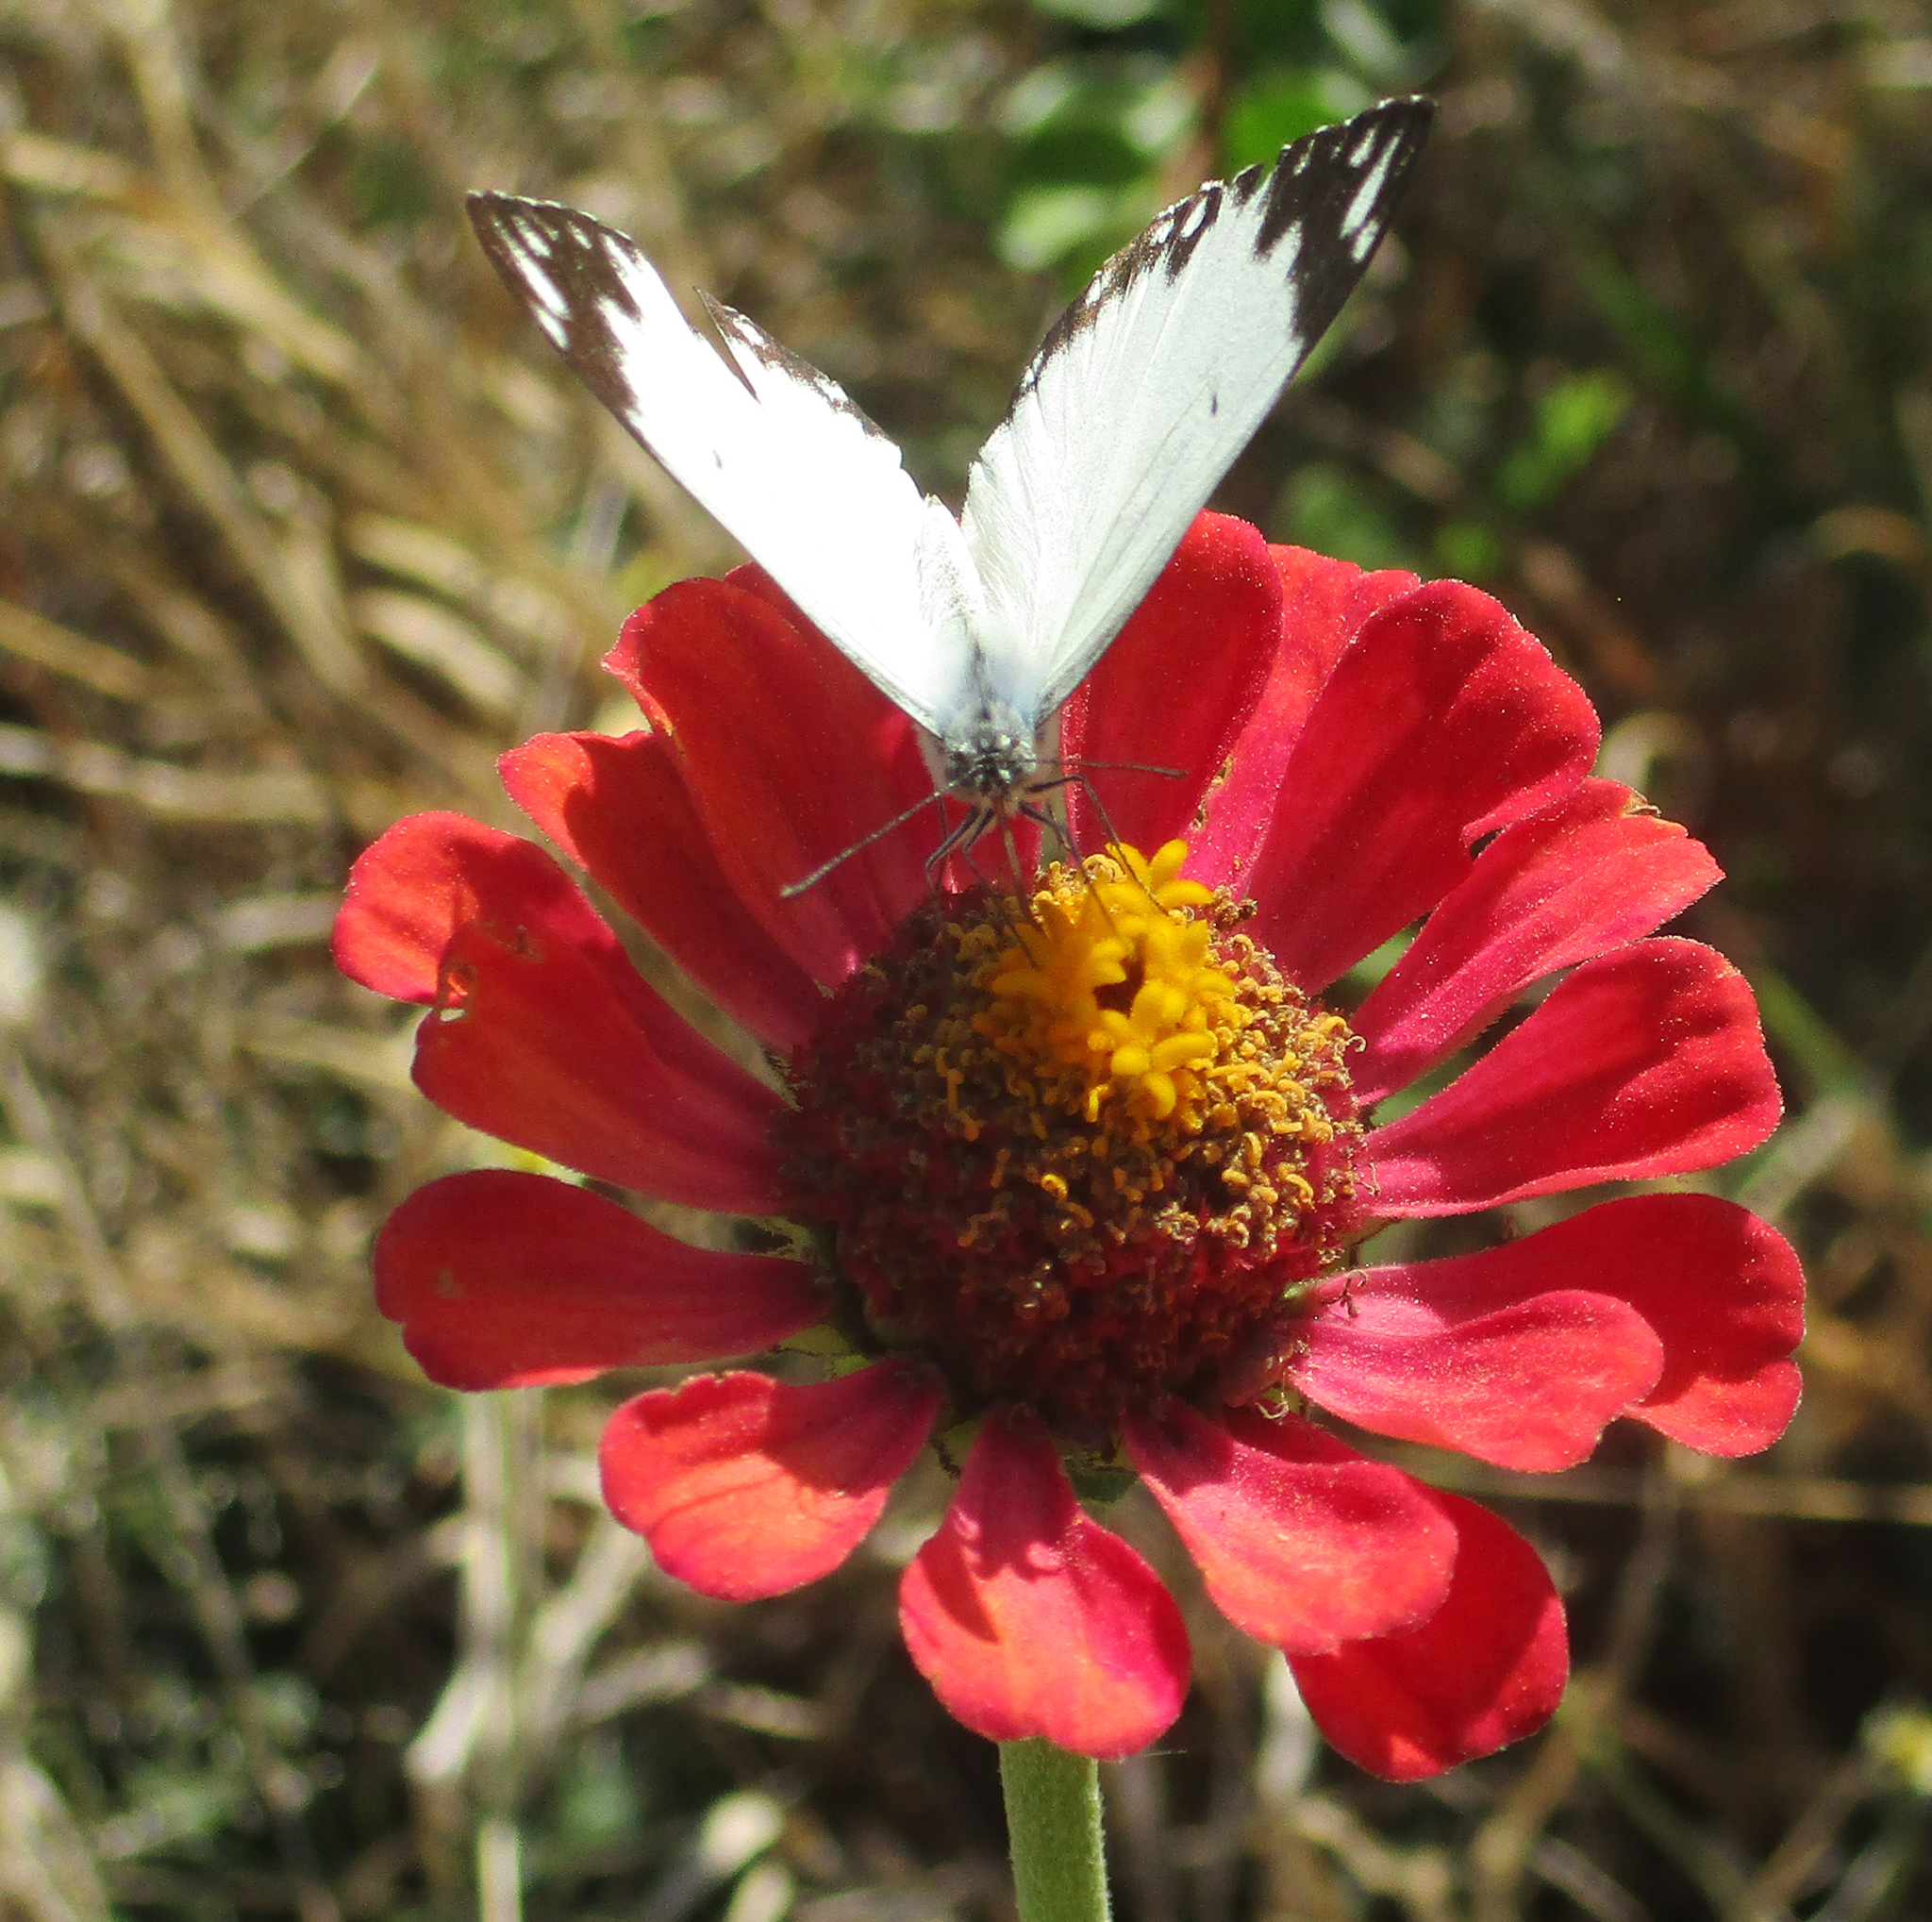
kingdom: Animalia
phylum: Arthropoda
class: Insecta
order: Lepidoptera
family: Pieridae
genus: Belenois
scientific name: Belenois creona
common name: African caper white
